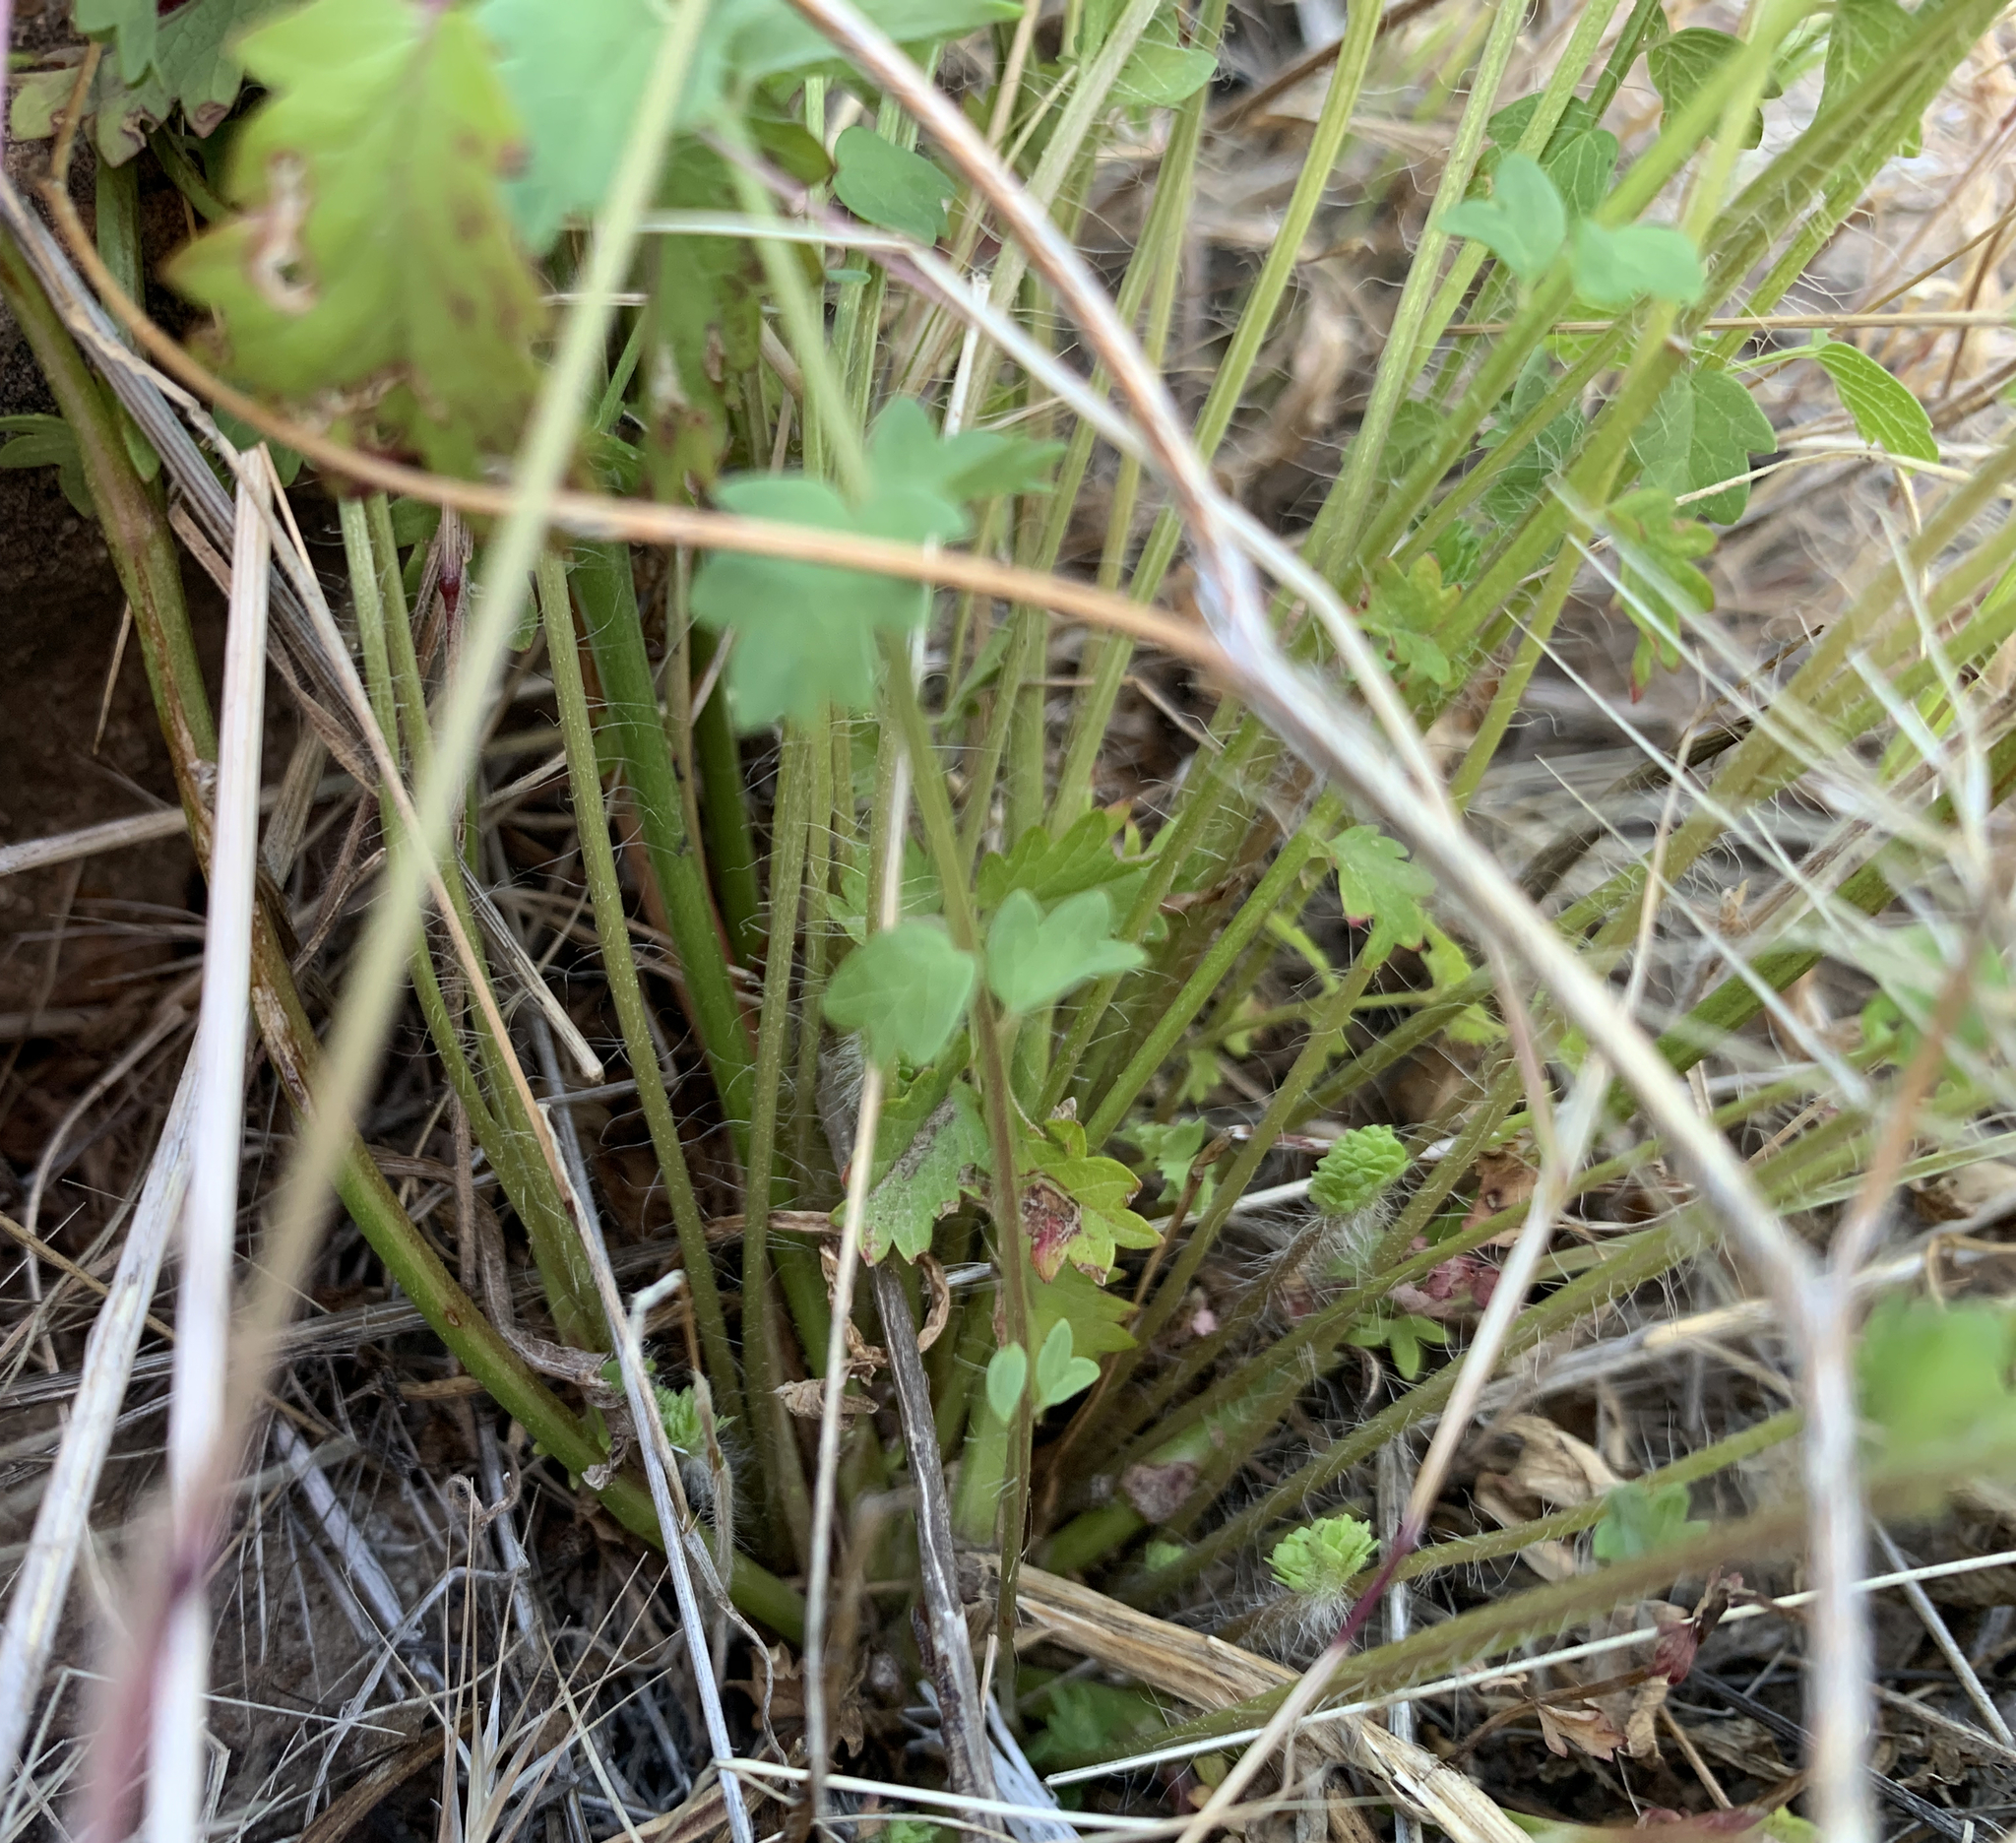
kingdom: Plantae
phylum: Tracheophyta
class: Magnoliopsida
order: Rosales
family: Rosaceae
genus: Poterium
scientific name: Poterium sanguisorba
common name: Salad burnet
